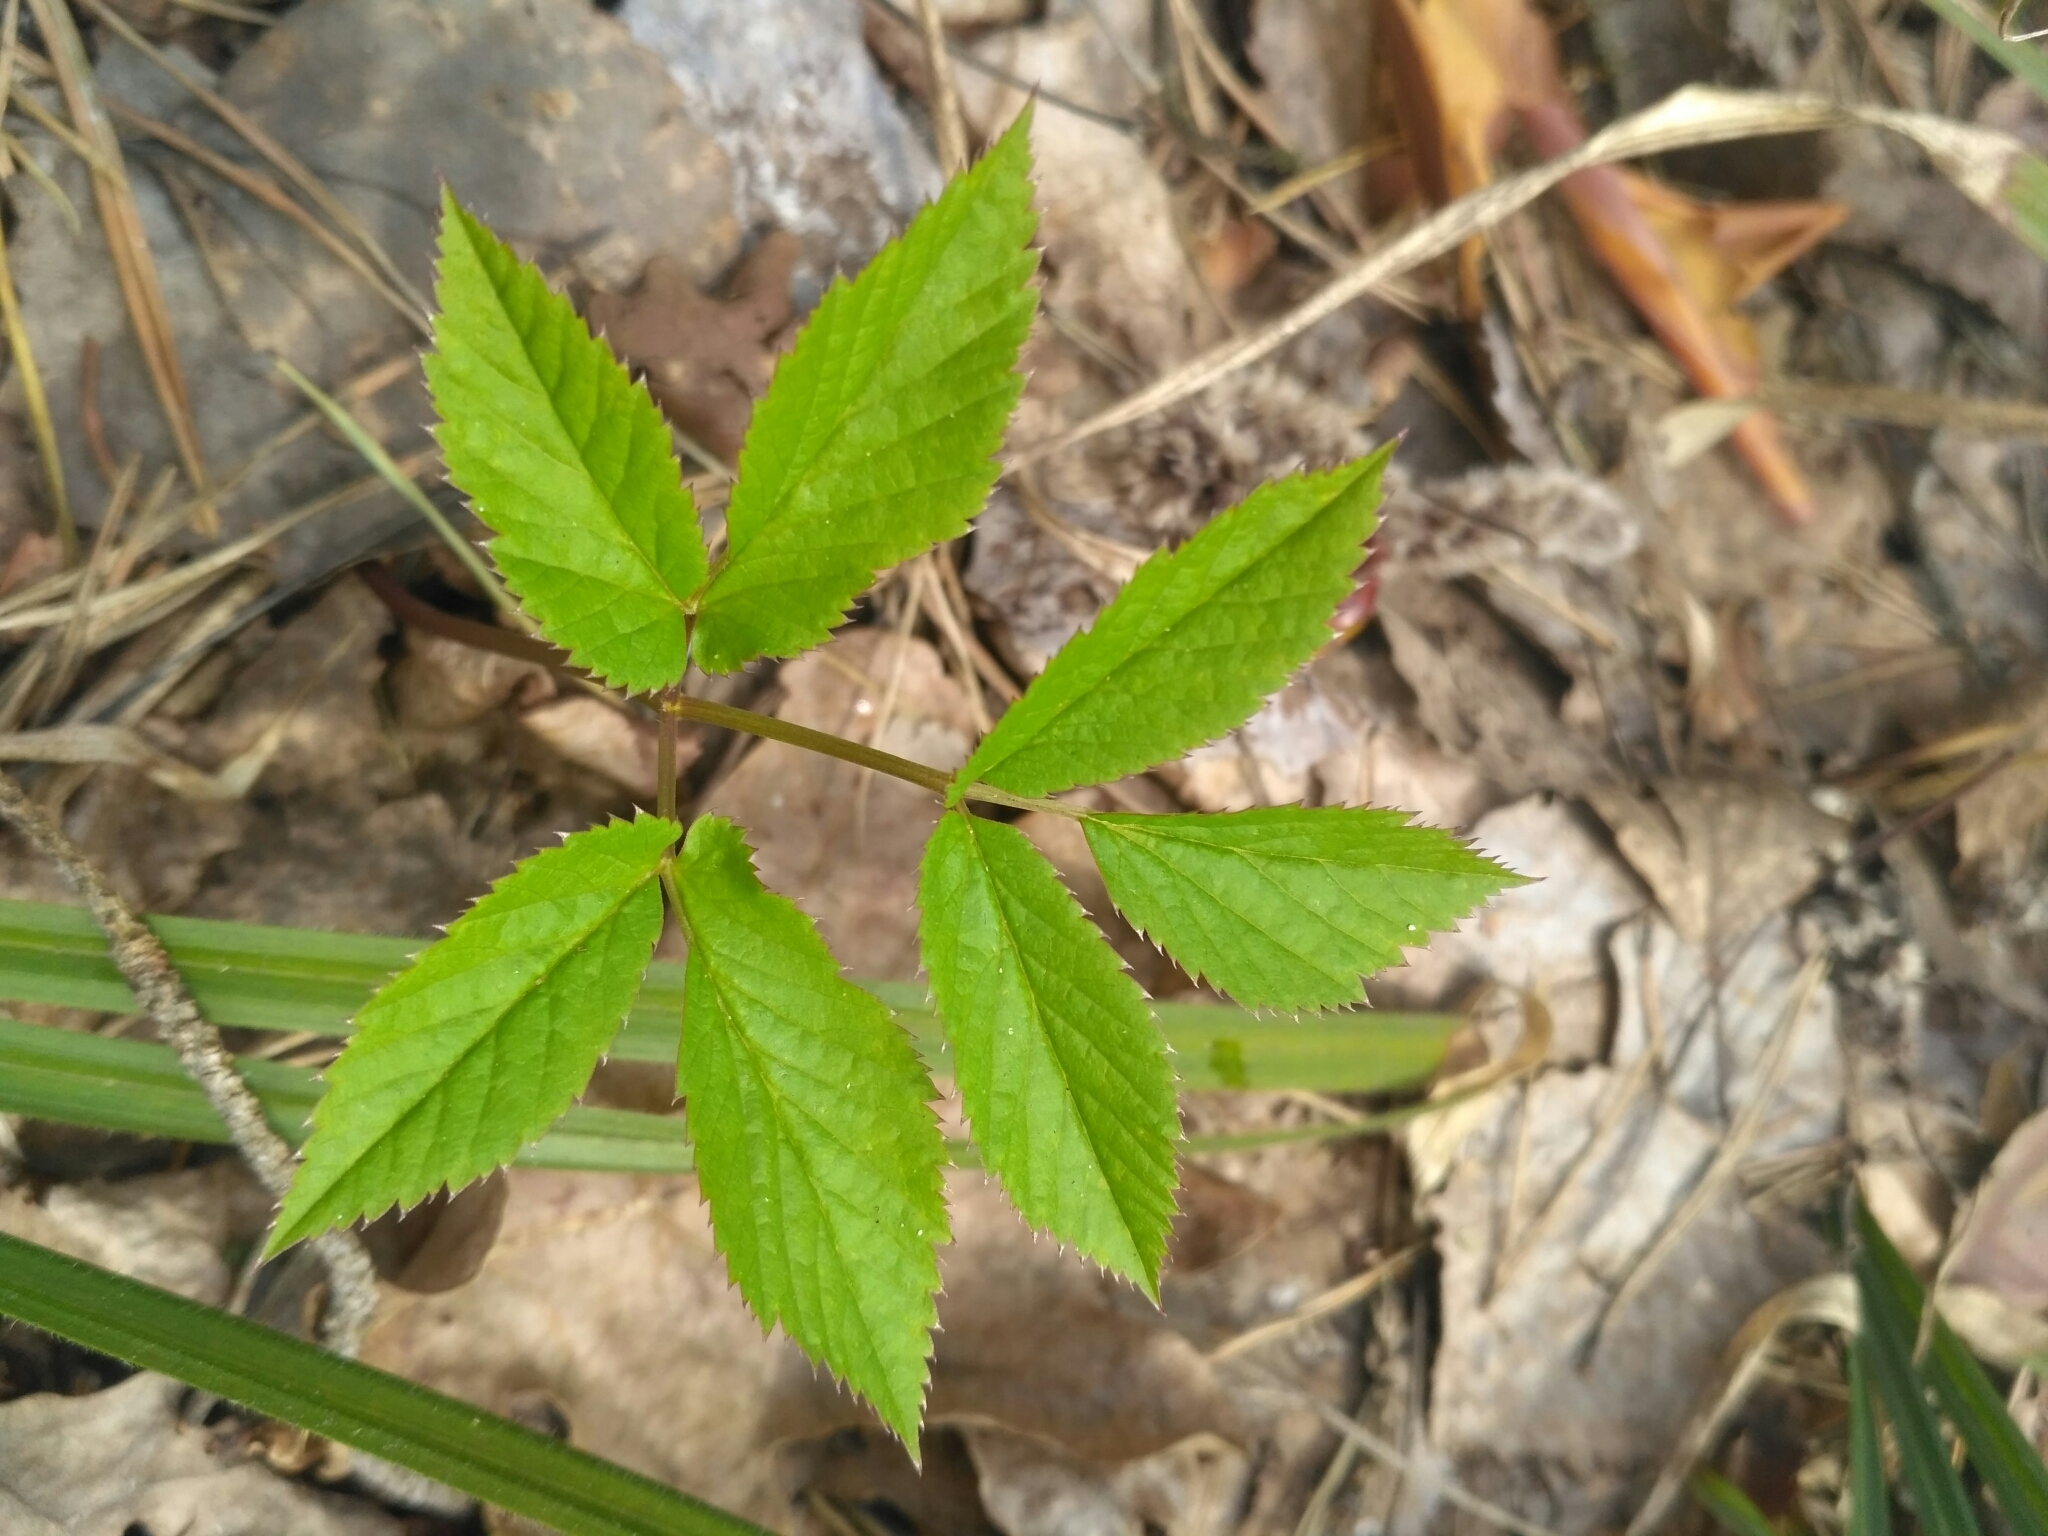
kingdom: Plantae
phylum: Tracheophyta
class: Magnoliopsida
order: Apiales
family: Apiaceae
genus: Aegopodium
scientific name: Aegopodium podagraria
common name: Ground-elder
